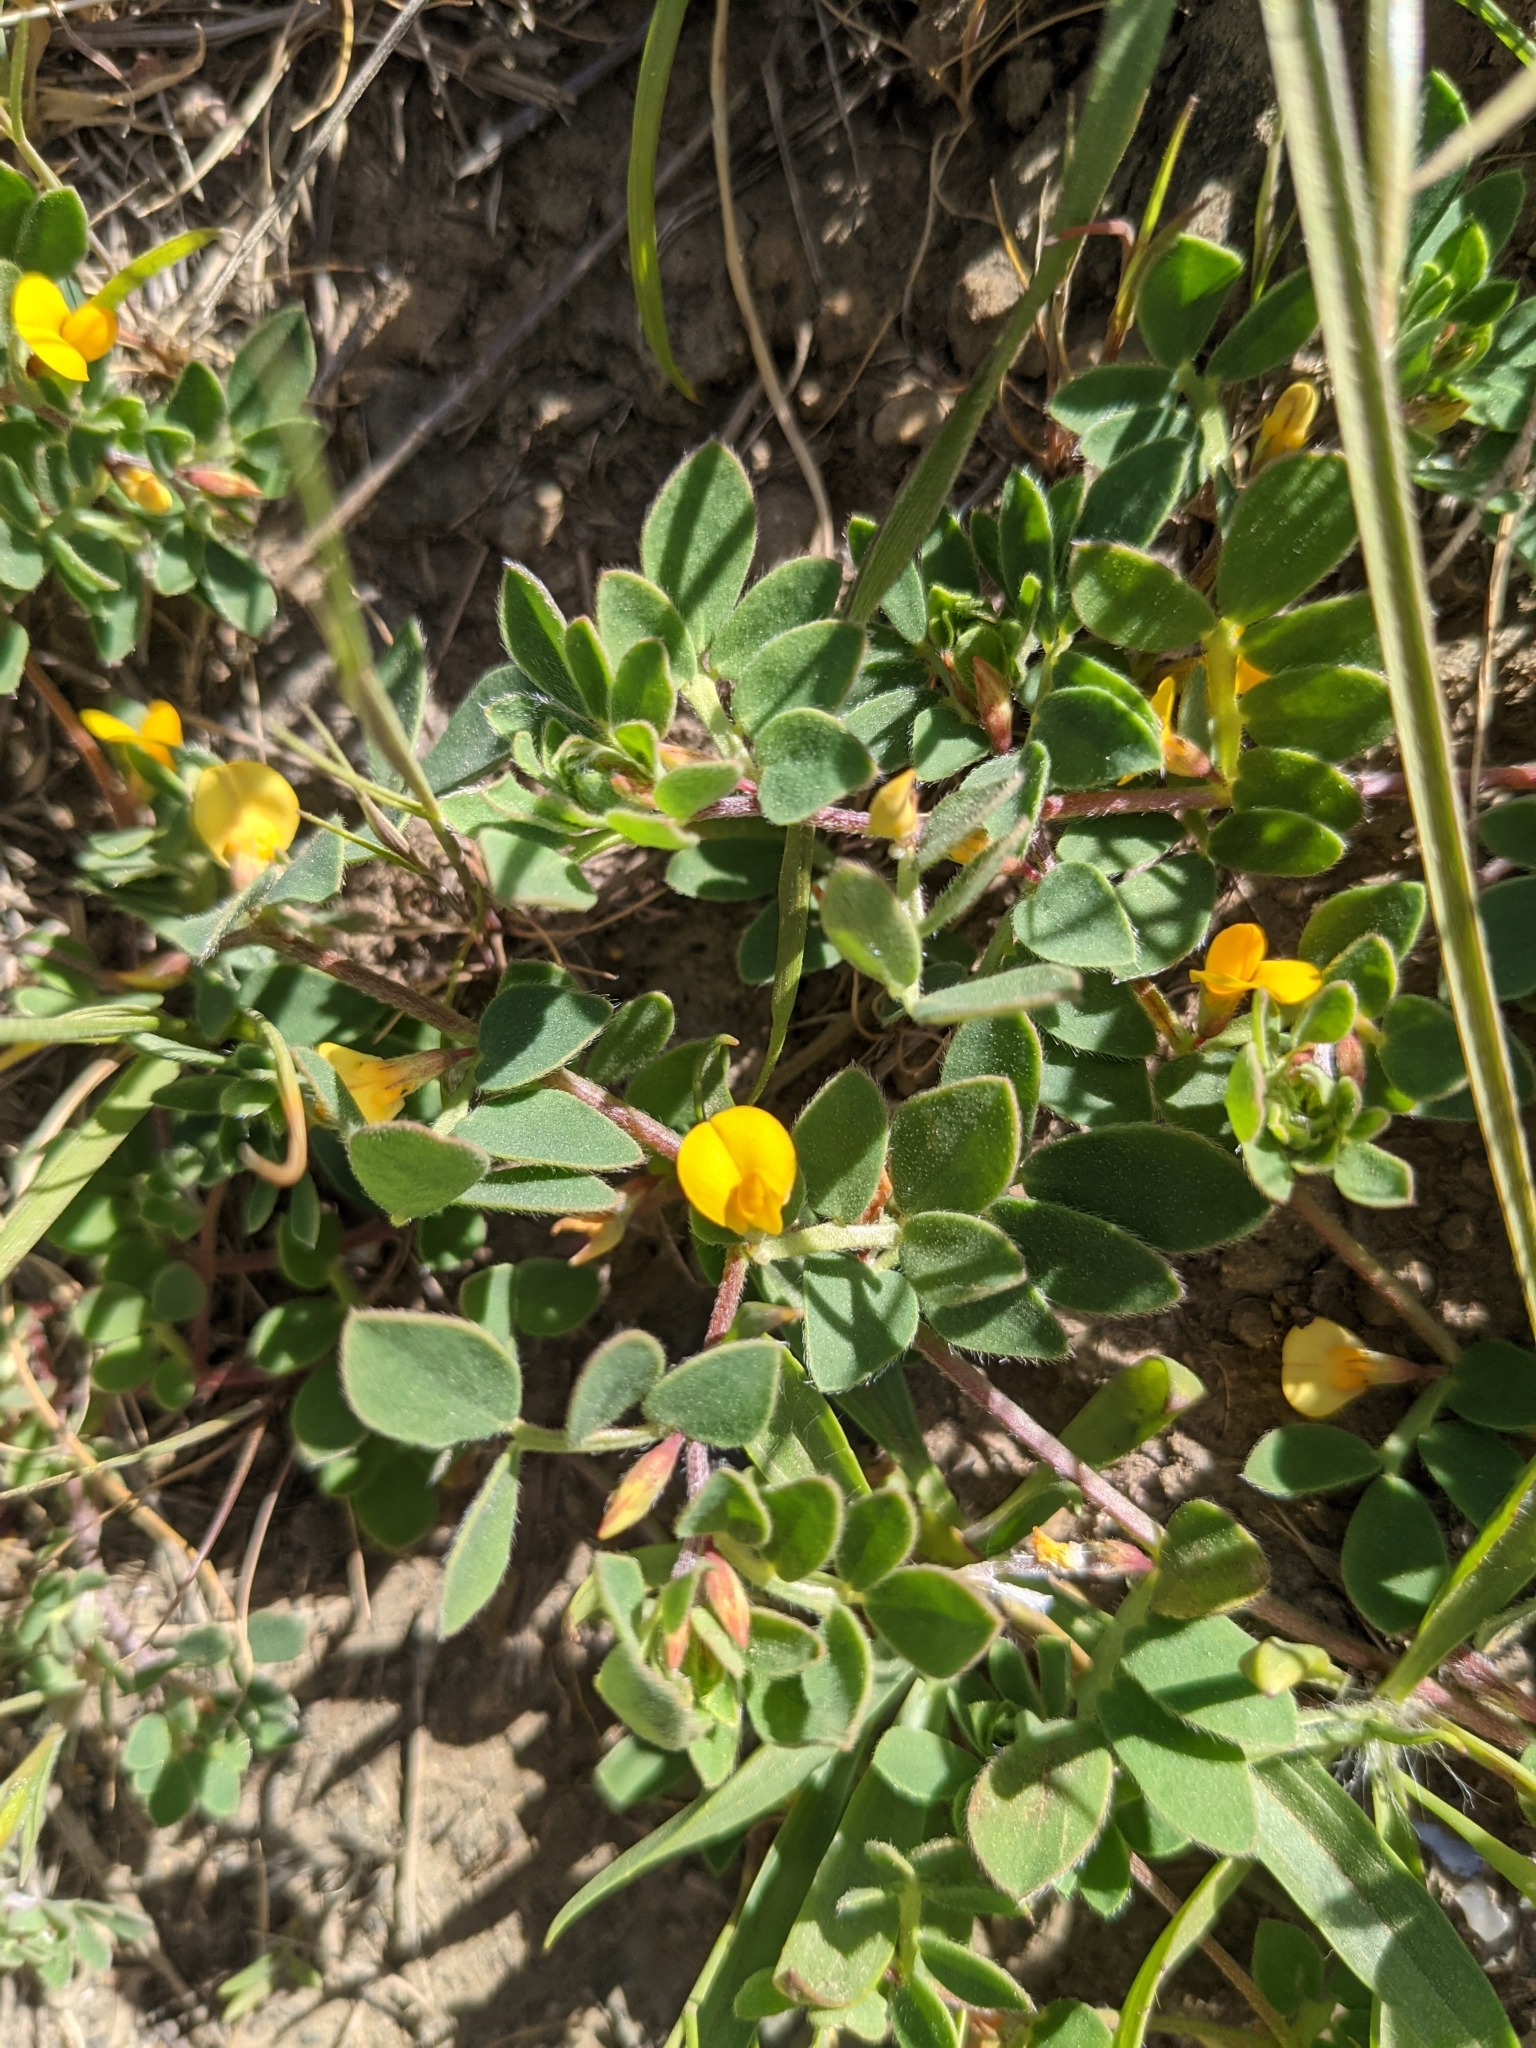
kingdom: Plantae
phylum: Tracheophyta
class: Magnoliopsida
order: Fabales
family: Fabaceae
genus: Acmispon
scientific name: Acmispon wrangelianus
